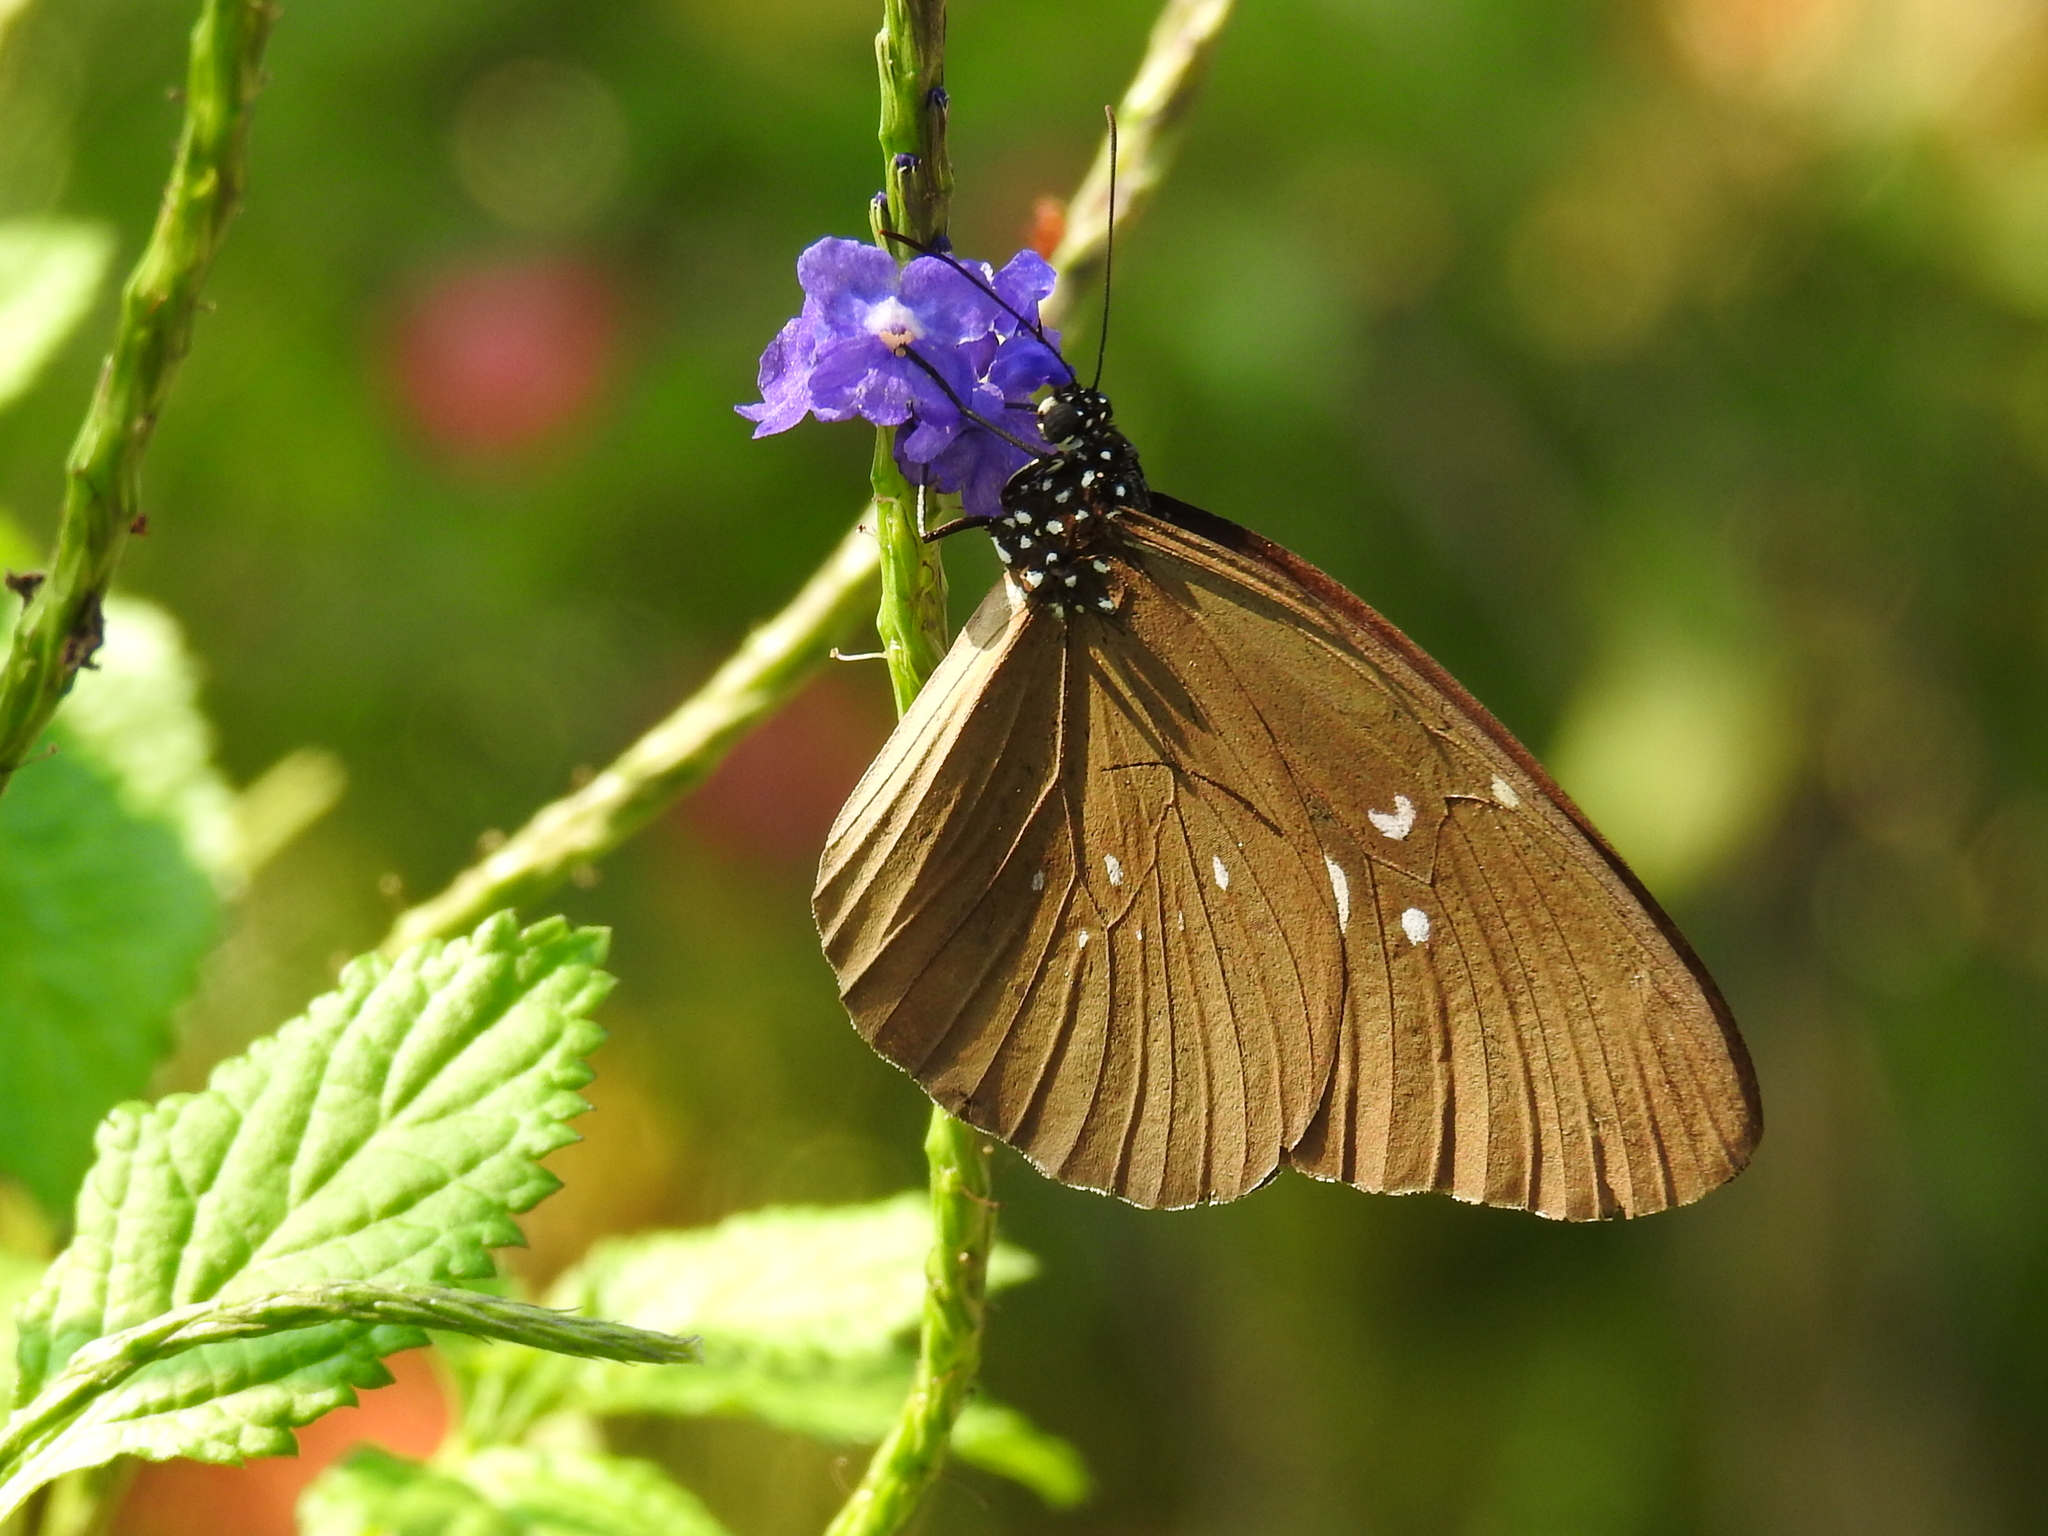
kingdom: Animalia
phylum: Arthropoda
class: Insecta
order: Lepidoptera
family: Nymphalidae
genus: Euploea
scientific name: Euploea core
